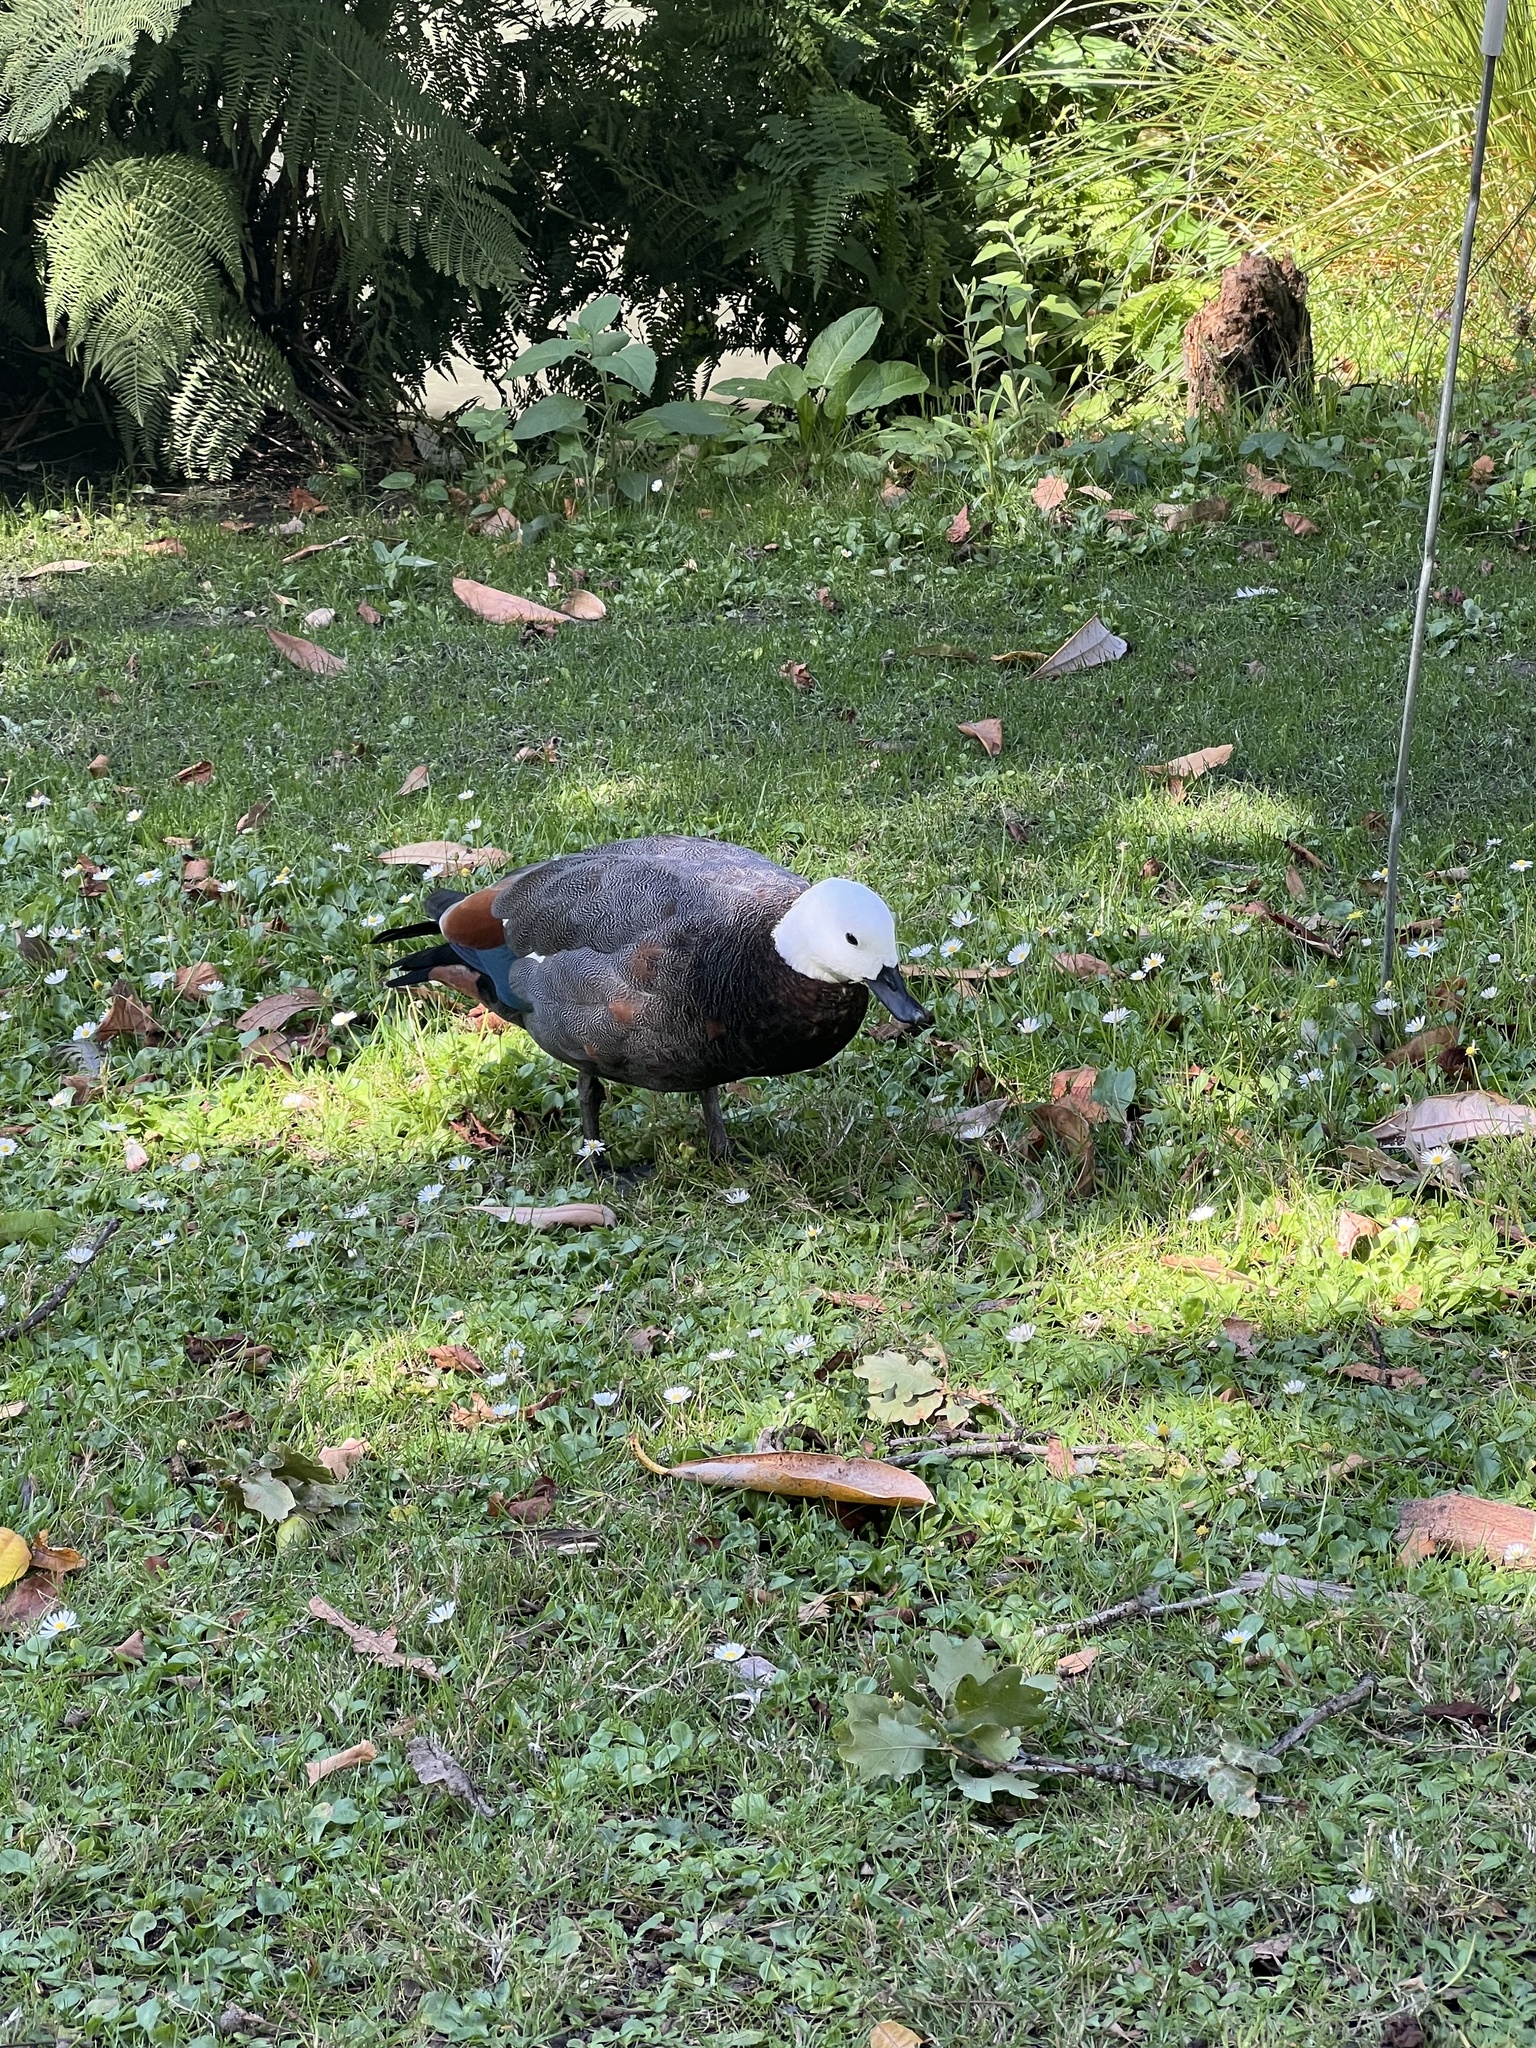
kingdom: Animalia
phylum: Chordata
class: Aves
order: Anseriformes
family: Anatidae
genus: Tadorna
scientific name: Tadorna variegata
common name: Paradise shelduck
